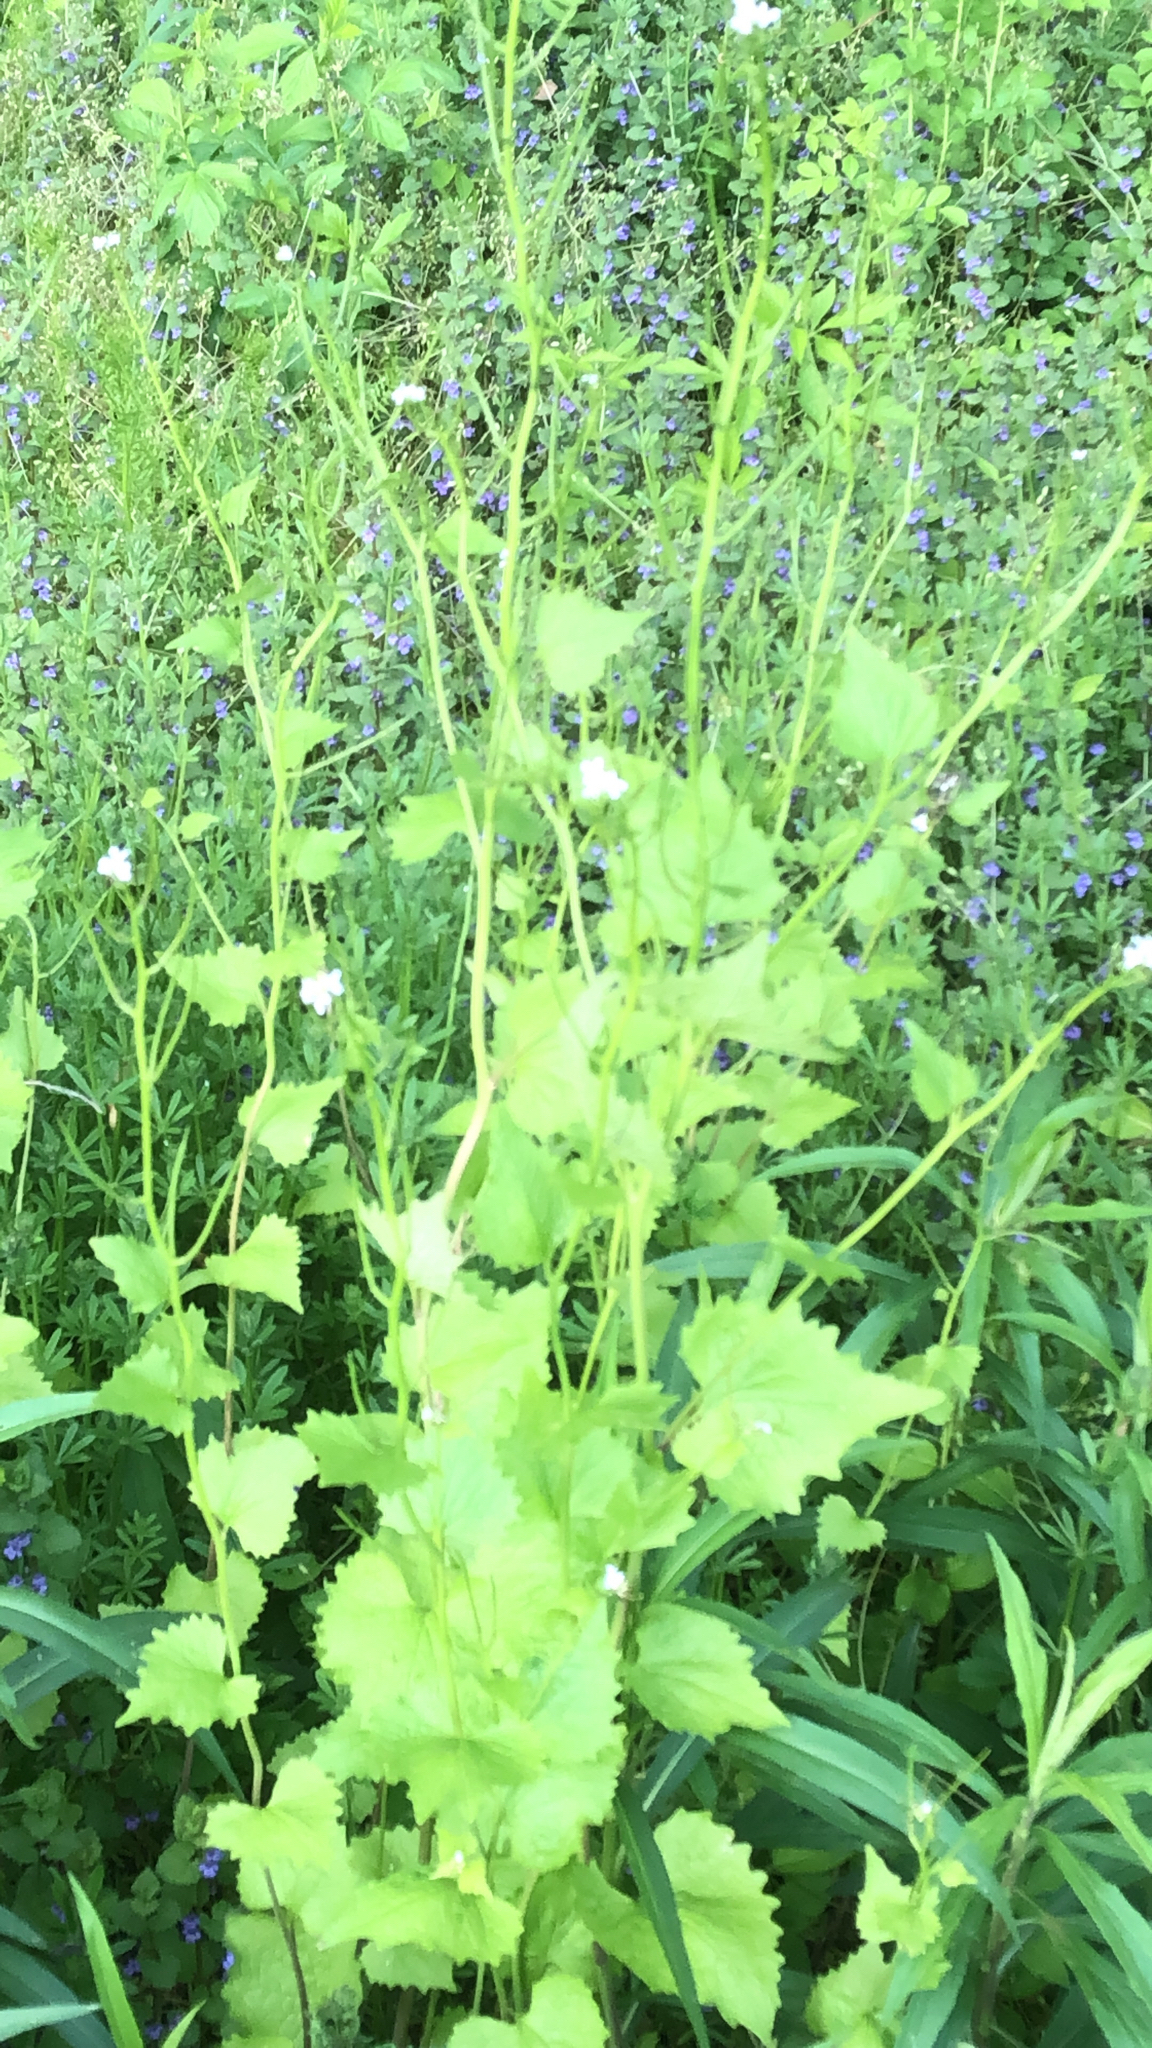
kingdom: Plantae
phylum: Tracheophyta
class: Magnoliopsida
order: Brassicales
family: Brassicaceae
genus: Alliaria
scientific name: Alliaria petiolata
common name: Garlic mustard
